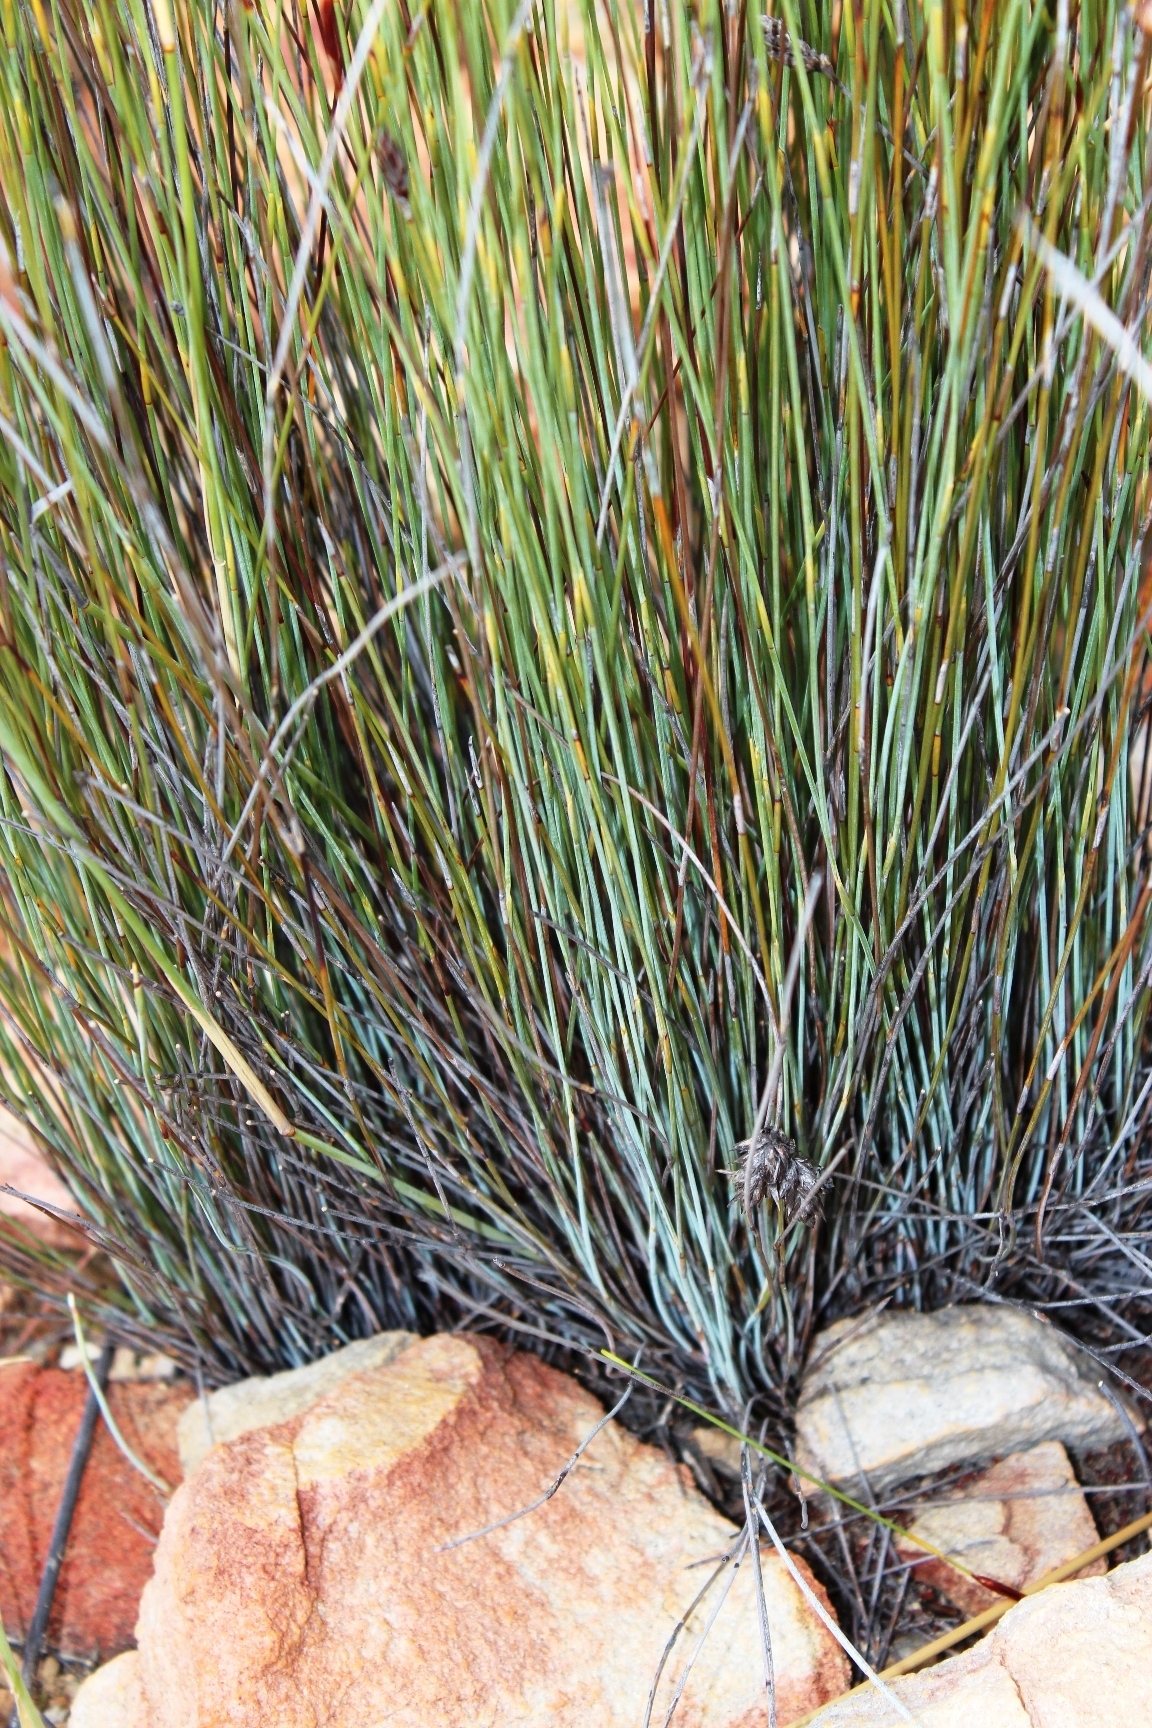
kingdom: Plantae
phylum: Tracheophyta
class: Liliopsida
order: Poales
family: Restionaceae
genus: Hypodiscus
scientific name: Hypodiscus striatus
